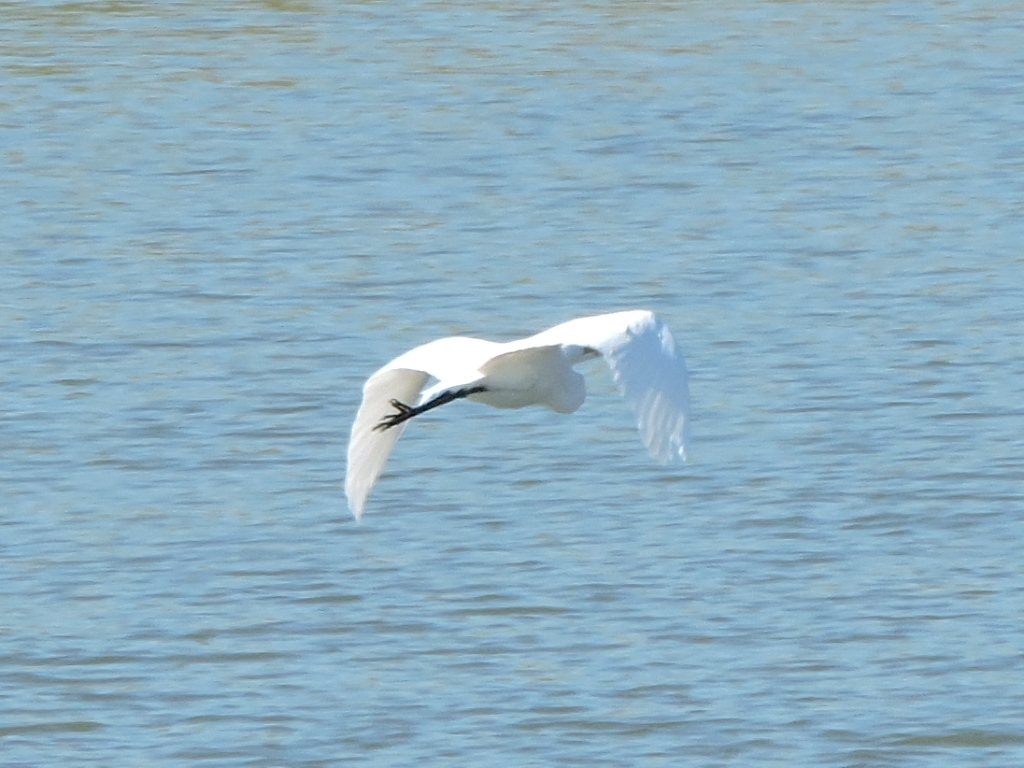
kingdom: Animalia
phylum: Chordata
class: Aves
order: Pelecaniformes
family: Ardeidae
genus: Ardea
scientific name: Ardea alba
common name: Great egret
